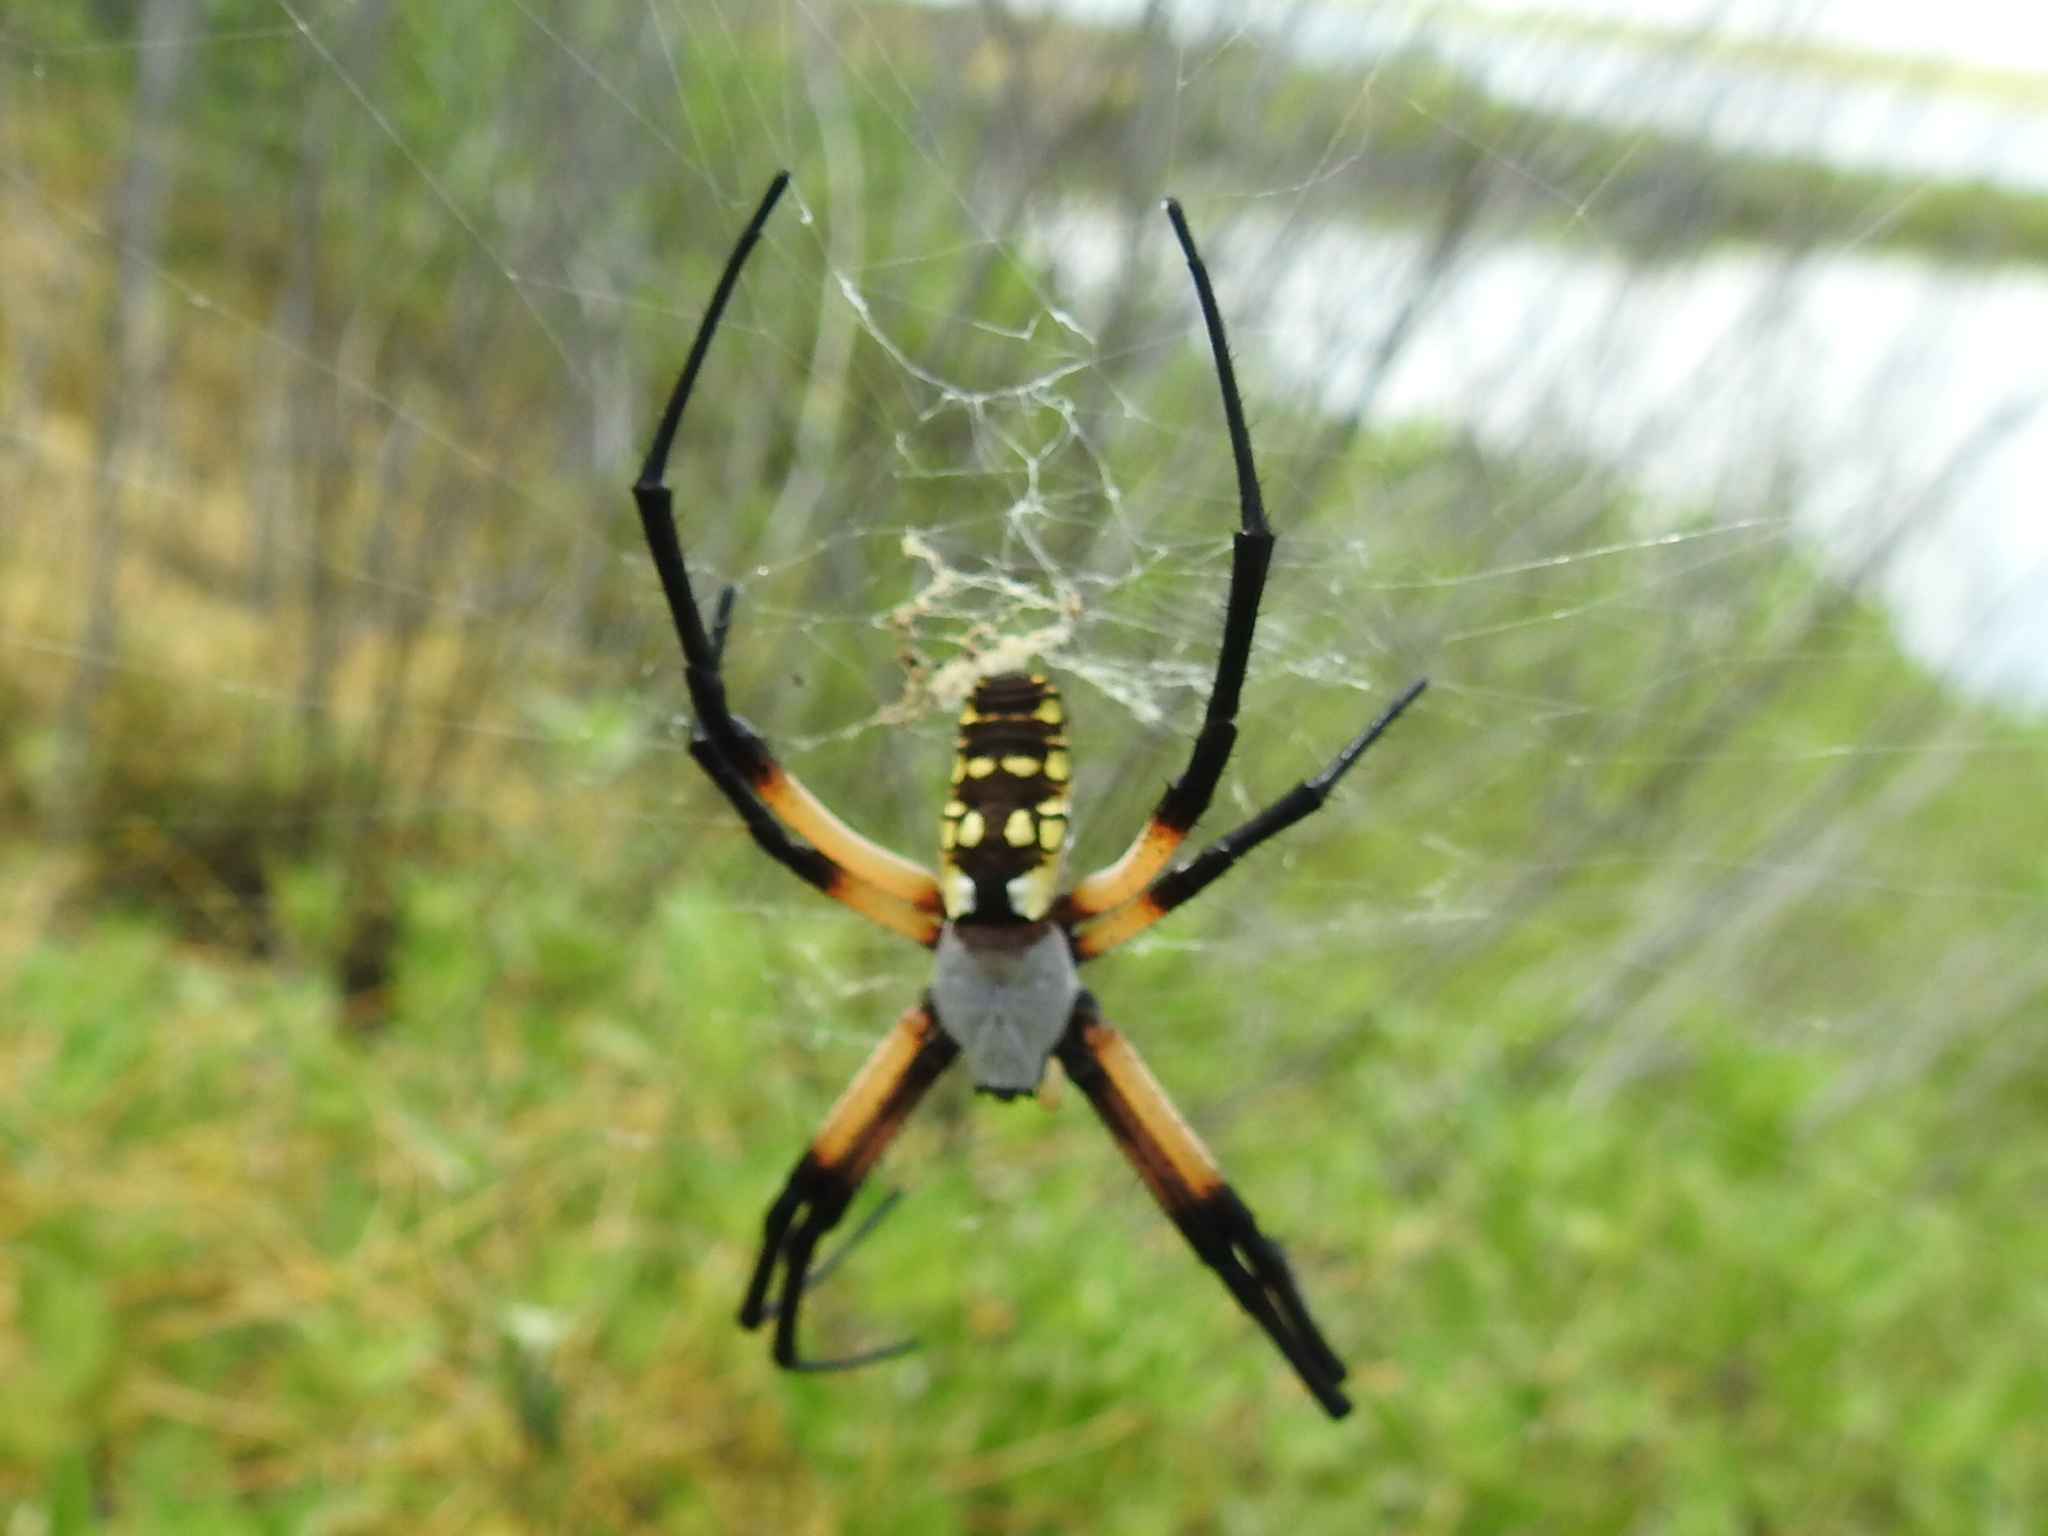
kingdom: Animalia
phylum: Arthropoda
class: Arachnida
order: Araneae
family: Araneidae
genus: Argiope
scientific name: Argiope aurantia
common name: Orb weavers
